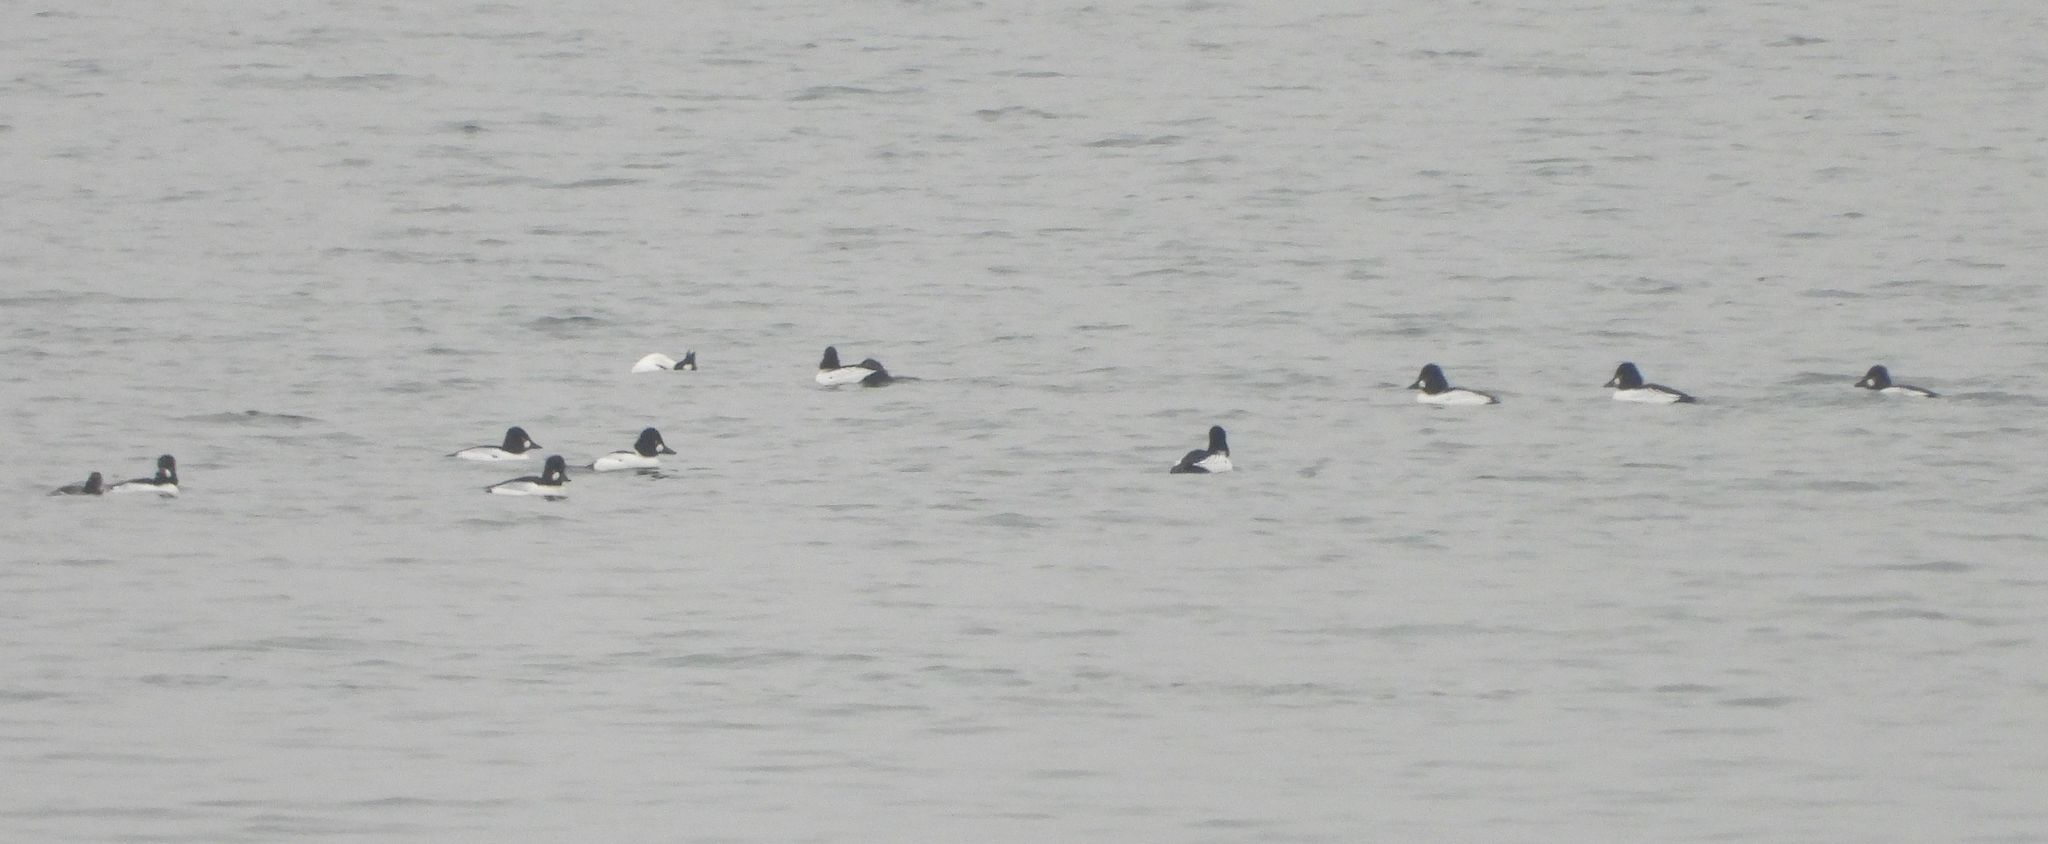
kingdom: Animalia
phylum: Chordata
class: Aves
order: Anseriformes
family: Anatidae
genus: Bucephala
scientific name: Bucephala clangula
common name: Common goldeneye
